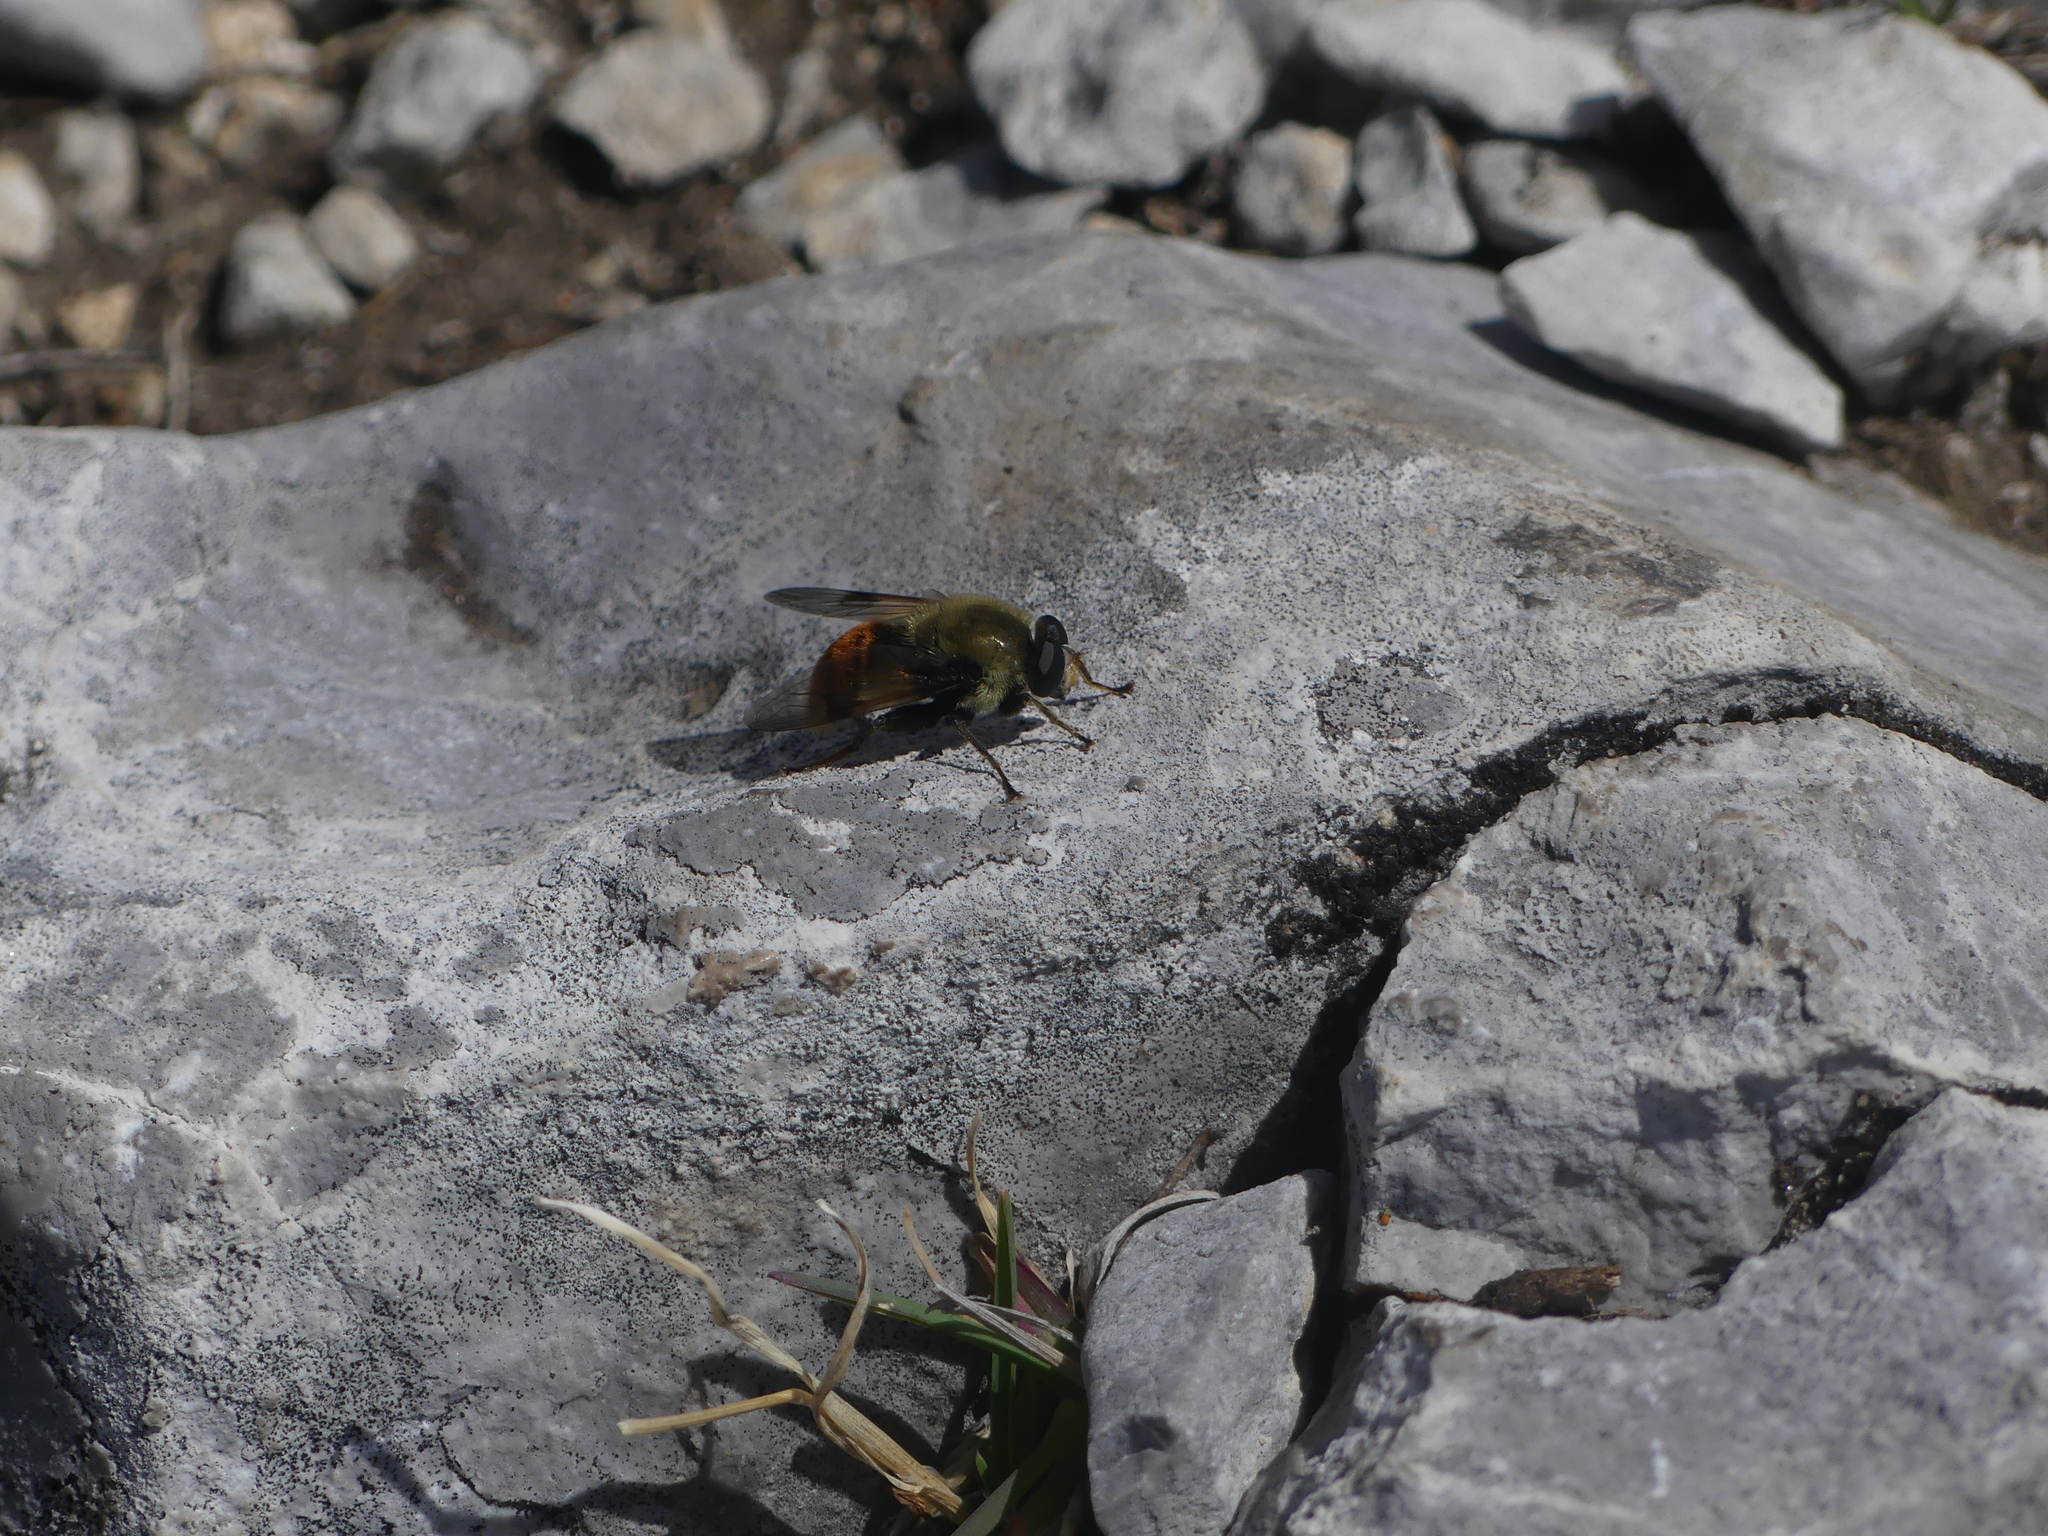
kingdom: Animalia
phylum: Arthropoda
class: Insecta
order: Diptera
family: Syrphidae
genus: Sericomyia
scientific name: Sericomyia flagrans
